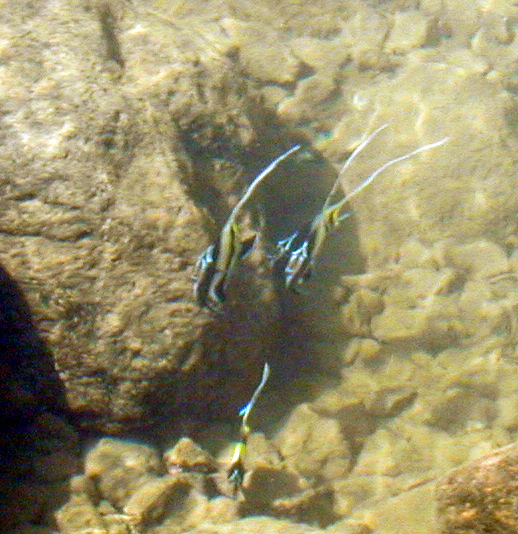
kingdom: Animalia
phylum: Chordata
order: Perciformes
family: Zanclidae
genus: Zanclus
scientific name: Zanclus cornutus
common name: Moorish idol
